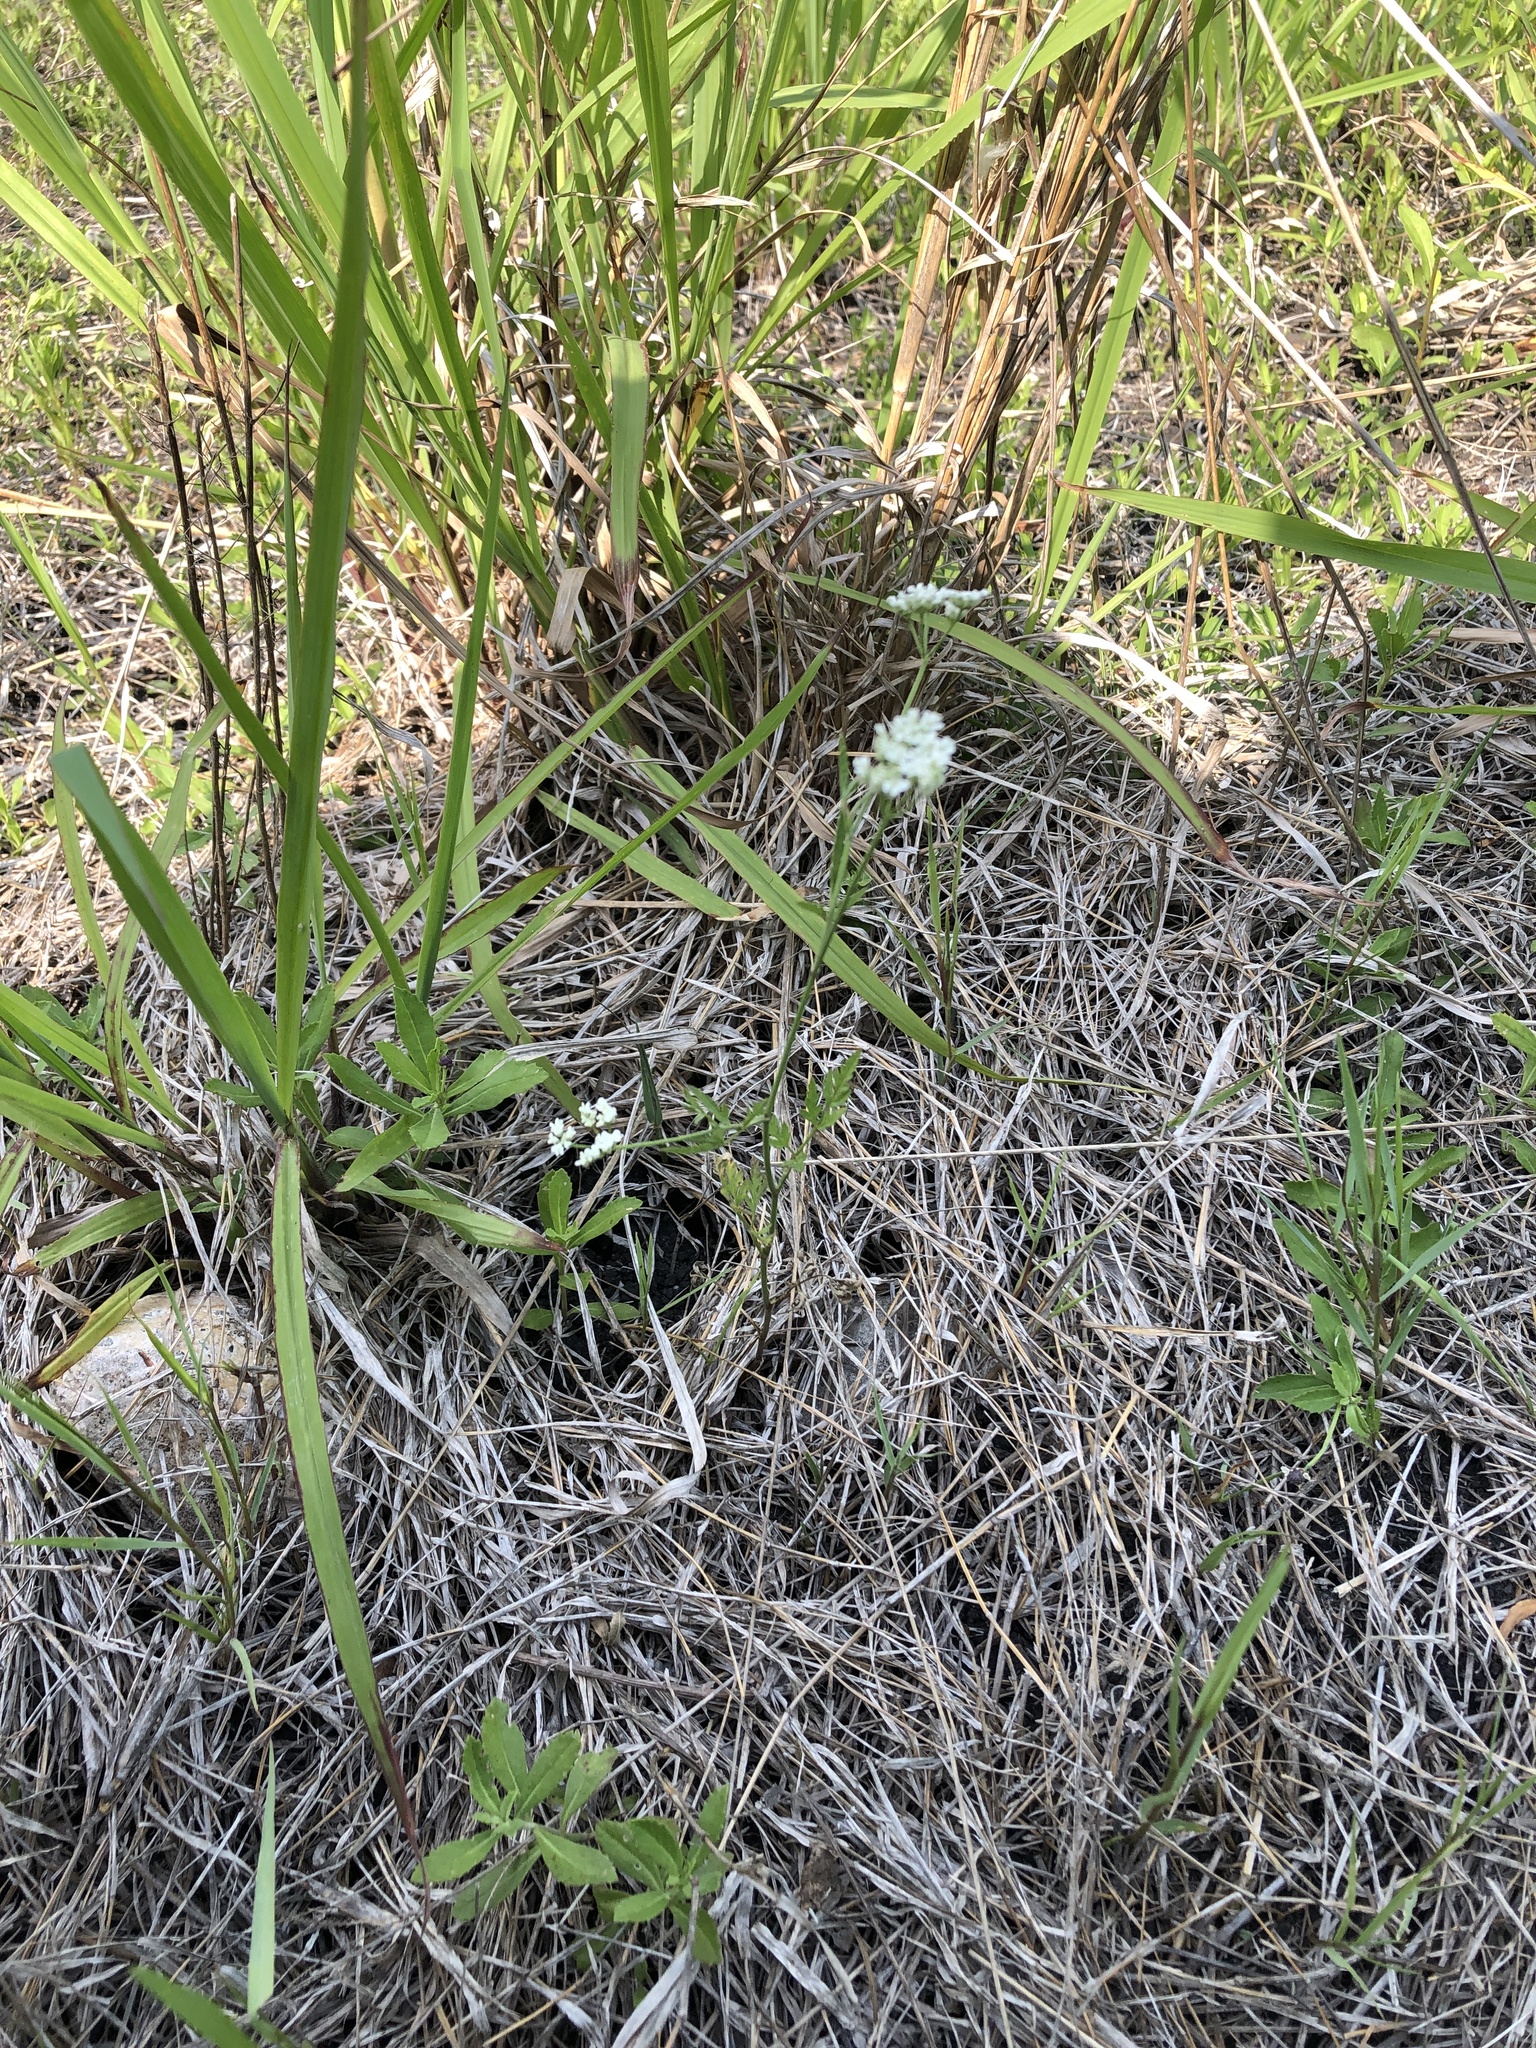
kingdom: Plantae
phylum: Tracheophyta
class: Magnoliopsida
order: Apiales
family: Apiaceae
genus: Torilis
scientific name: Torilis arvensis
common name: Spreading hedge-parsley
